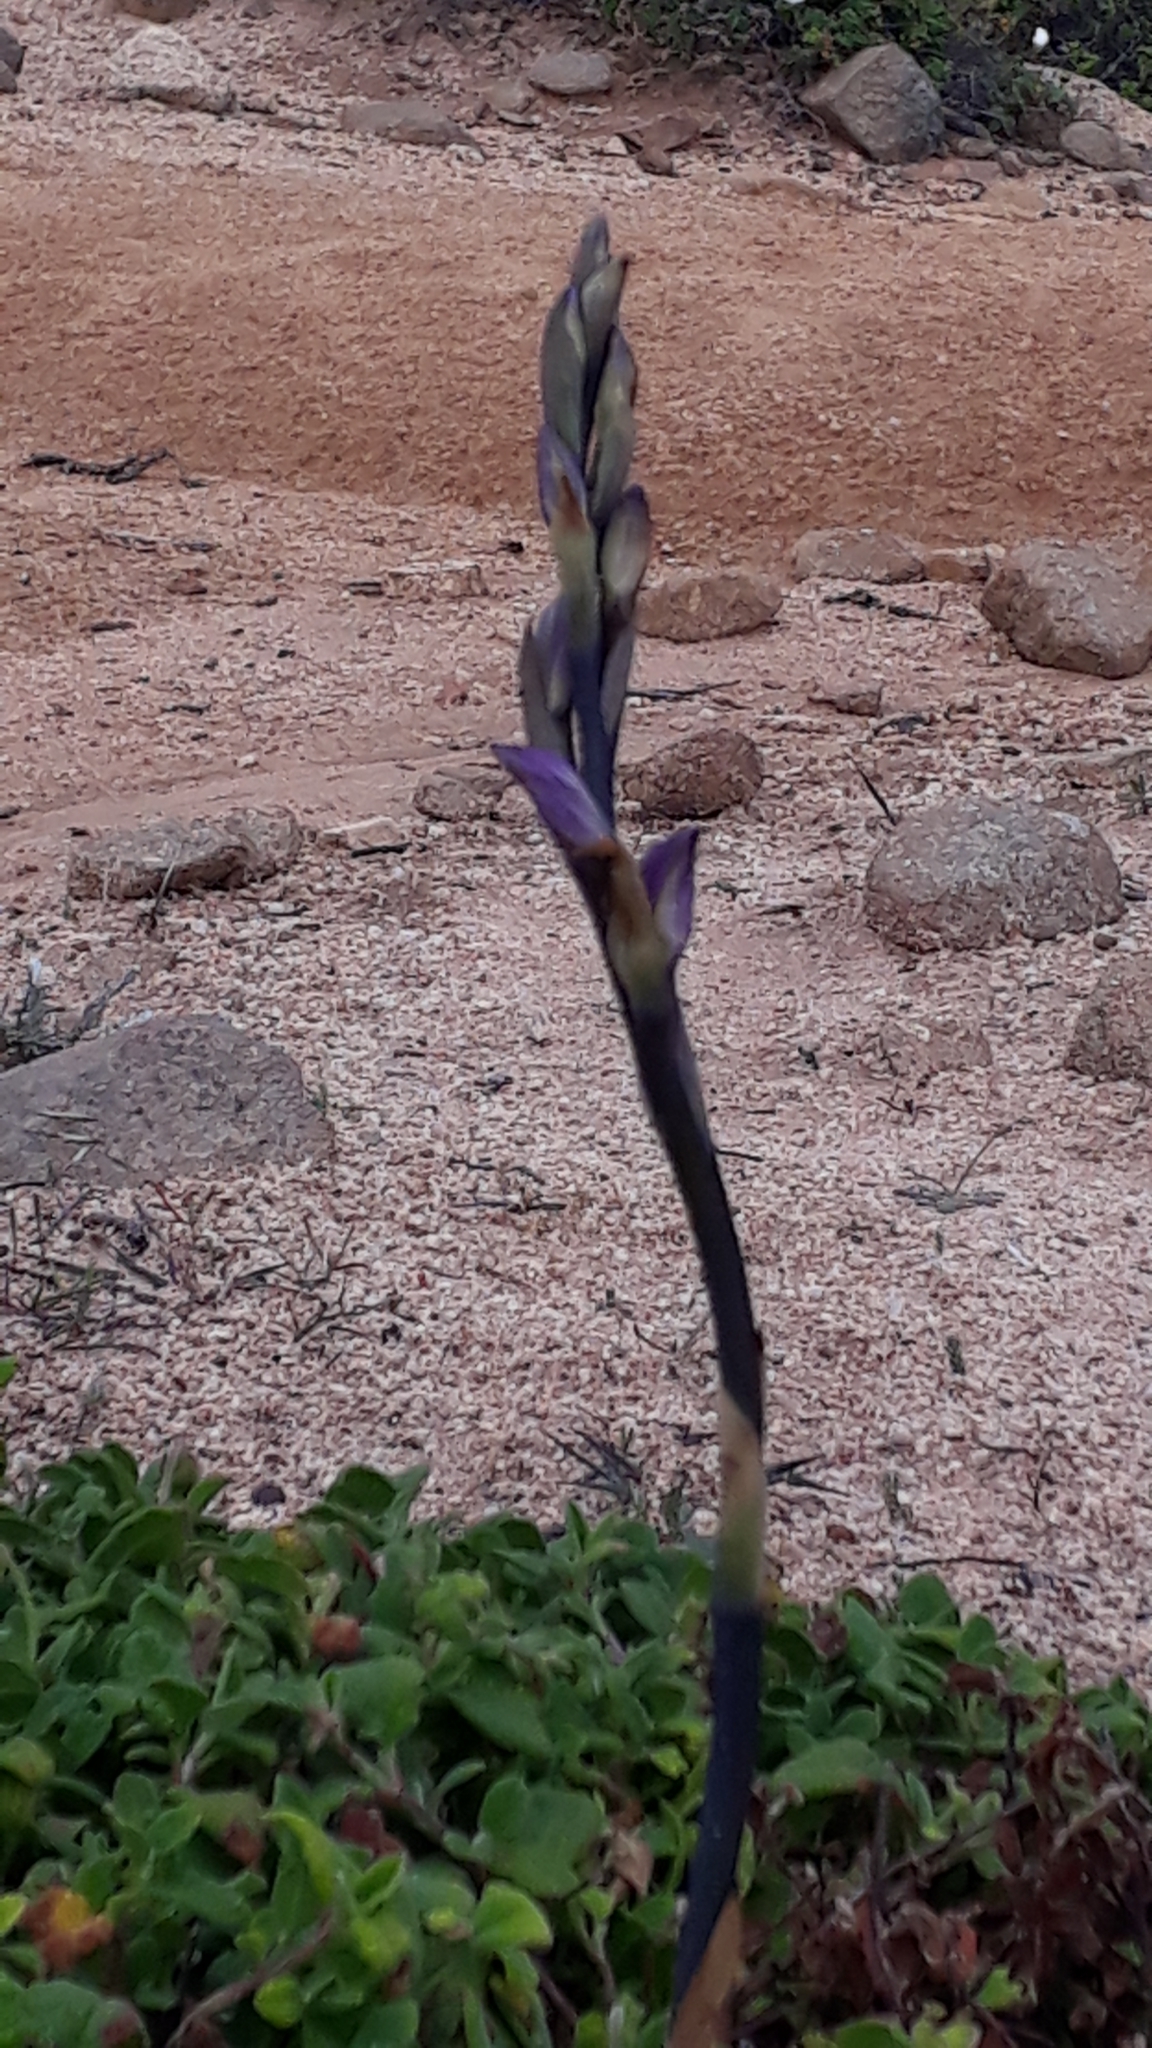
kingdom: Plantae
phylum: Tracheophyta
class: Liliopsida
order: Asparagales
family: Orchidaceae
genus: Limodorum
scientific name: Limodorum abortivum
